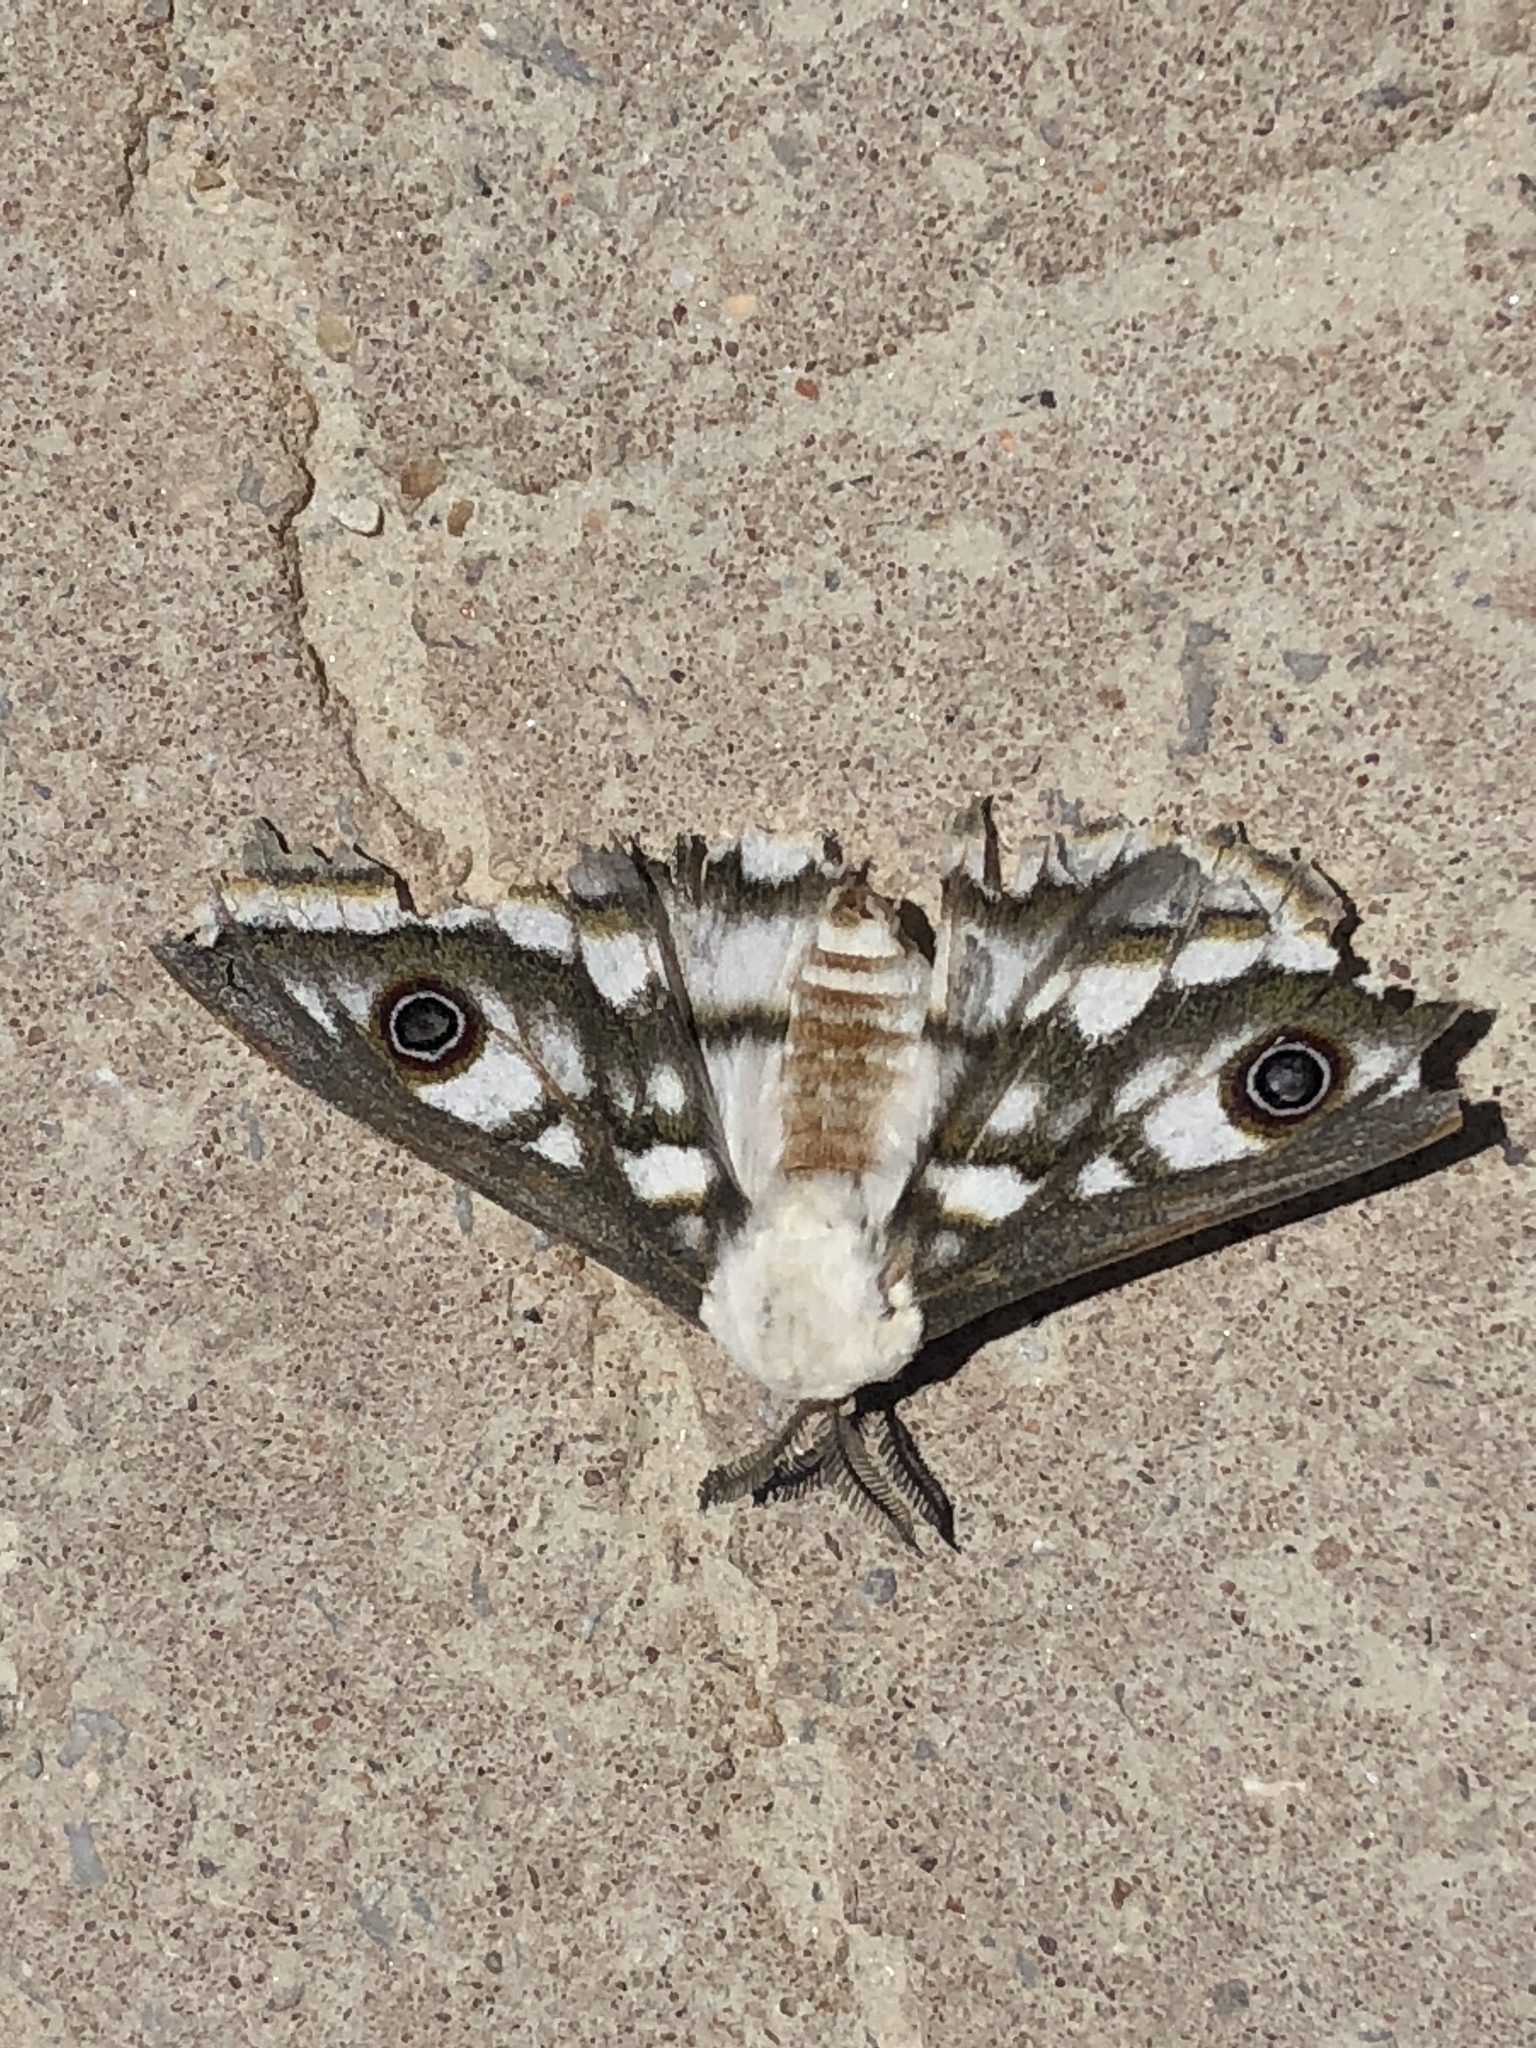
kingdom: Animalia
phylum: Arthropoda
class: Insecta
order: Lepidoptera
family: Saturniidae
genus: Heniocha
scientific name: Heniocha bioculata
